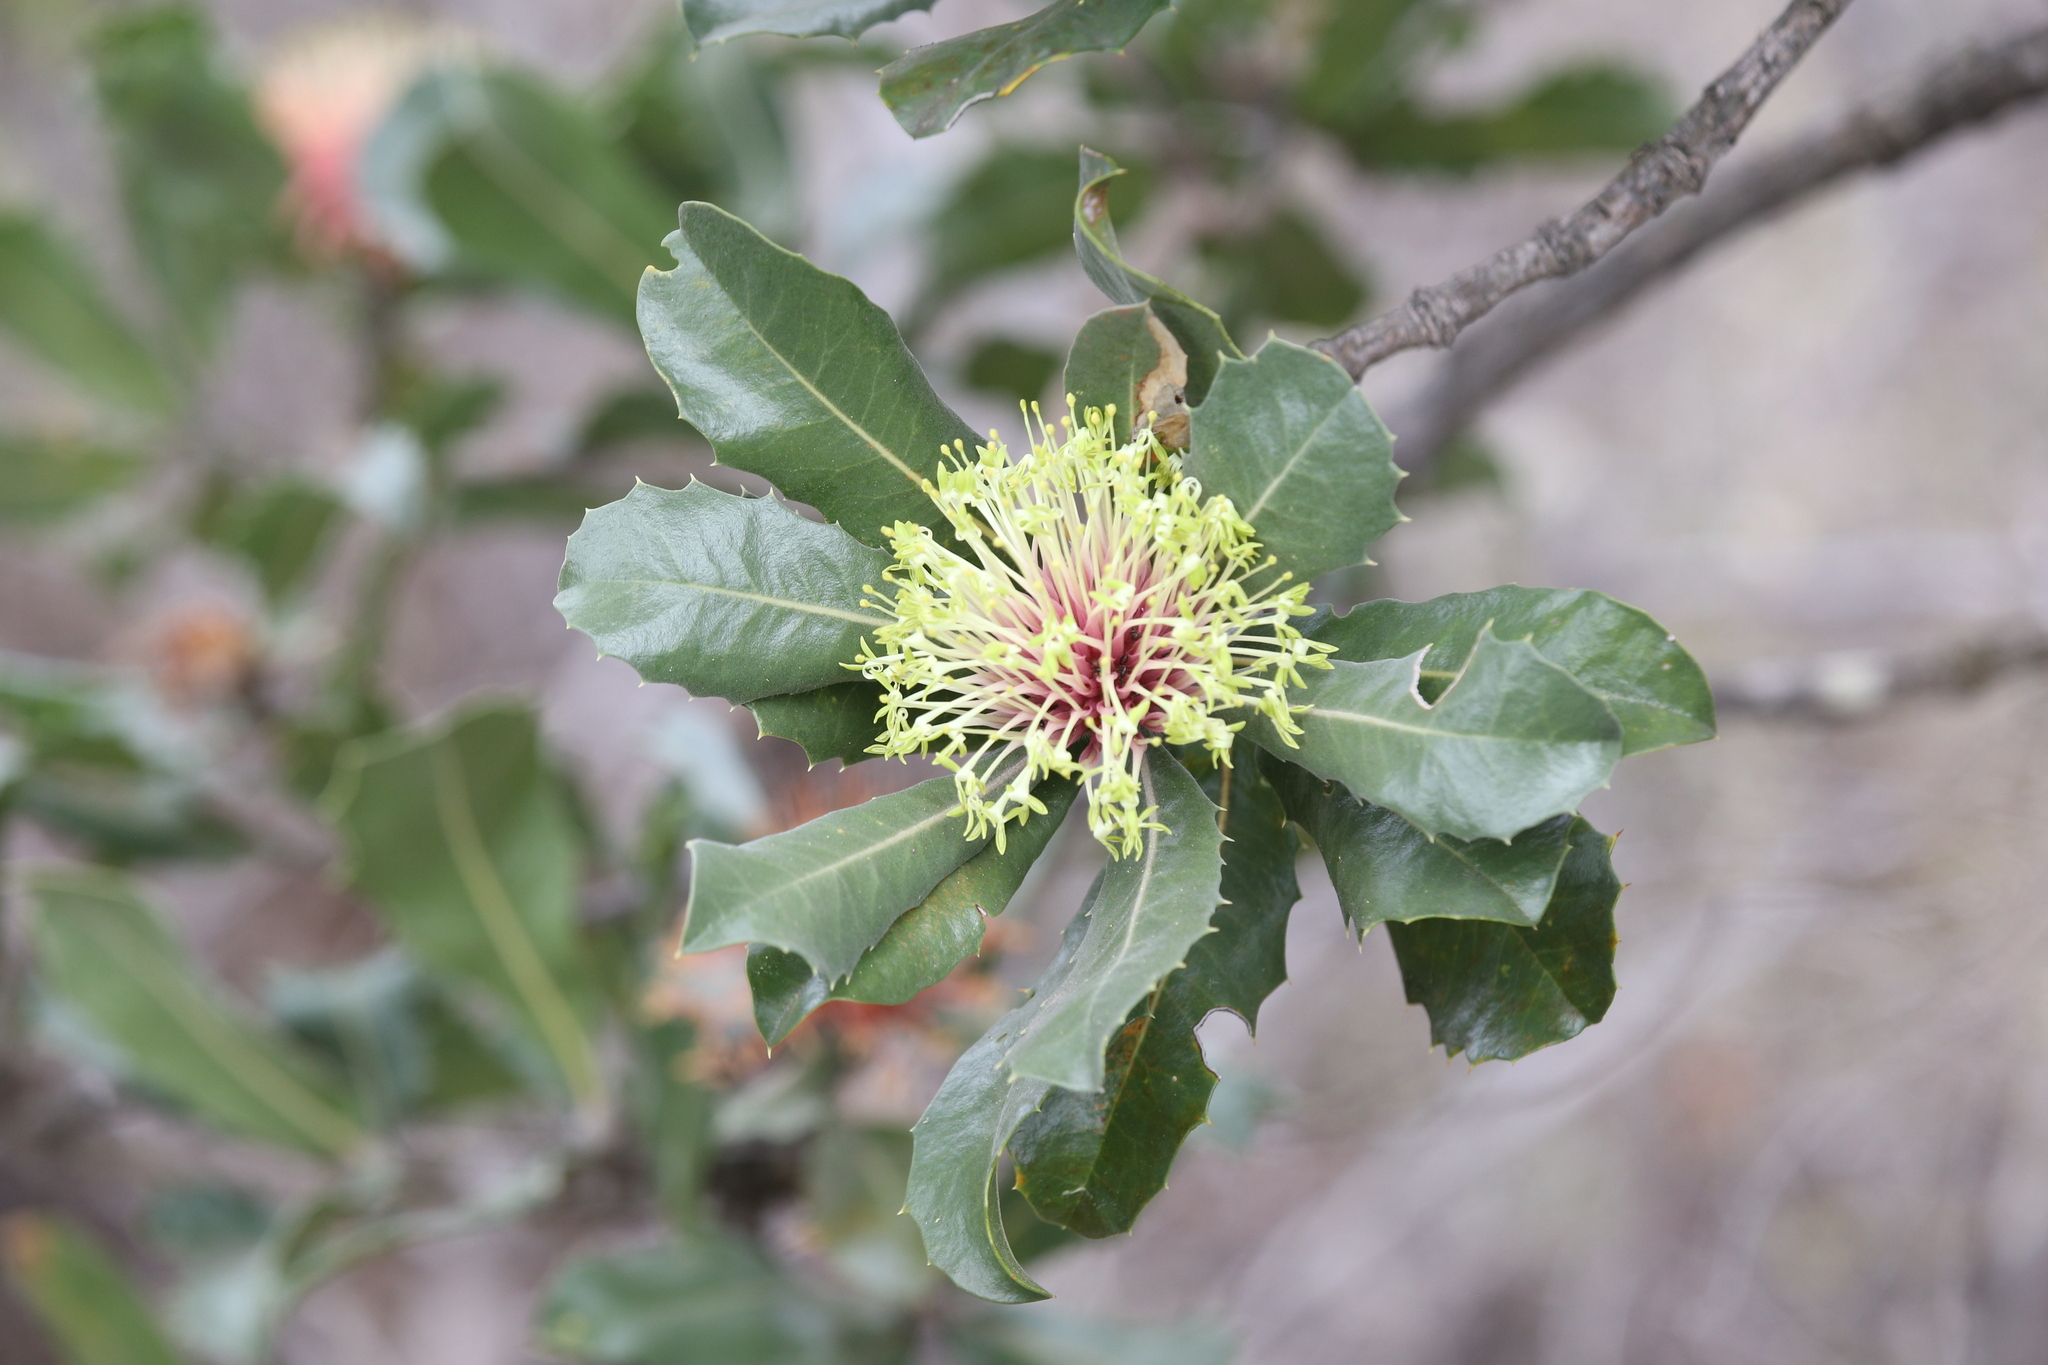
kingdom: Plantae
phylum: Tracheophyta
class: Magnoliopsida
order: Proteales
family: Proteaceae
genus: Banksia
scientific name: Banksia ilicifolia
